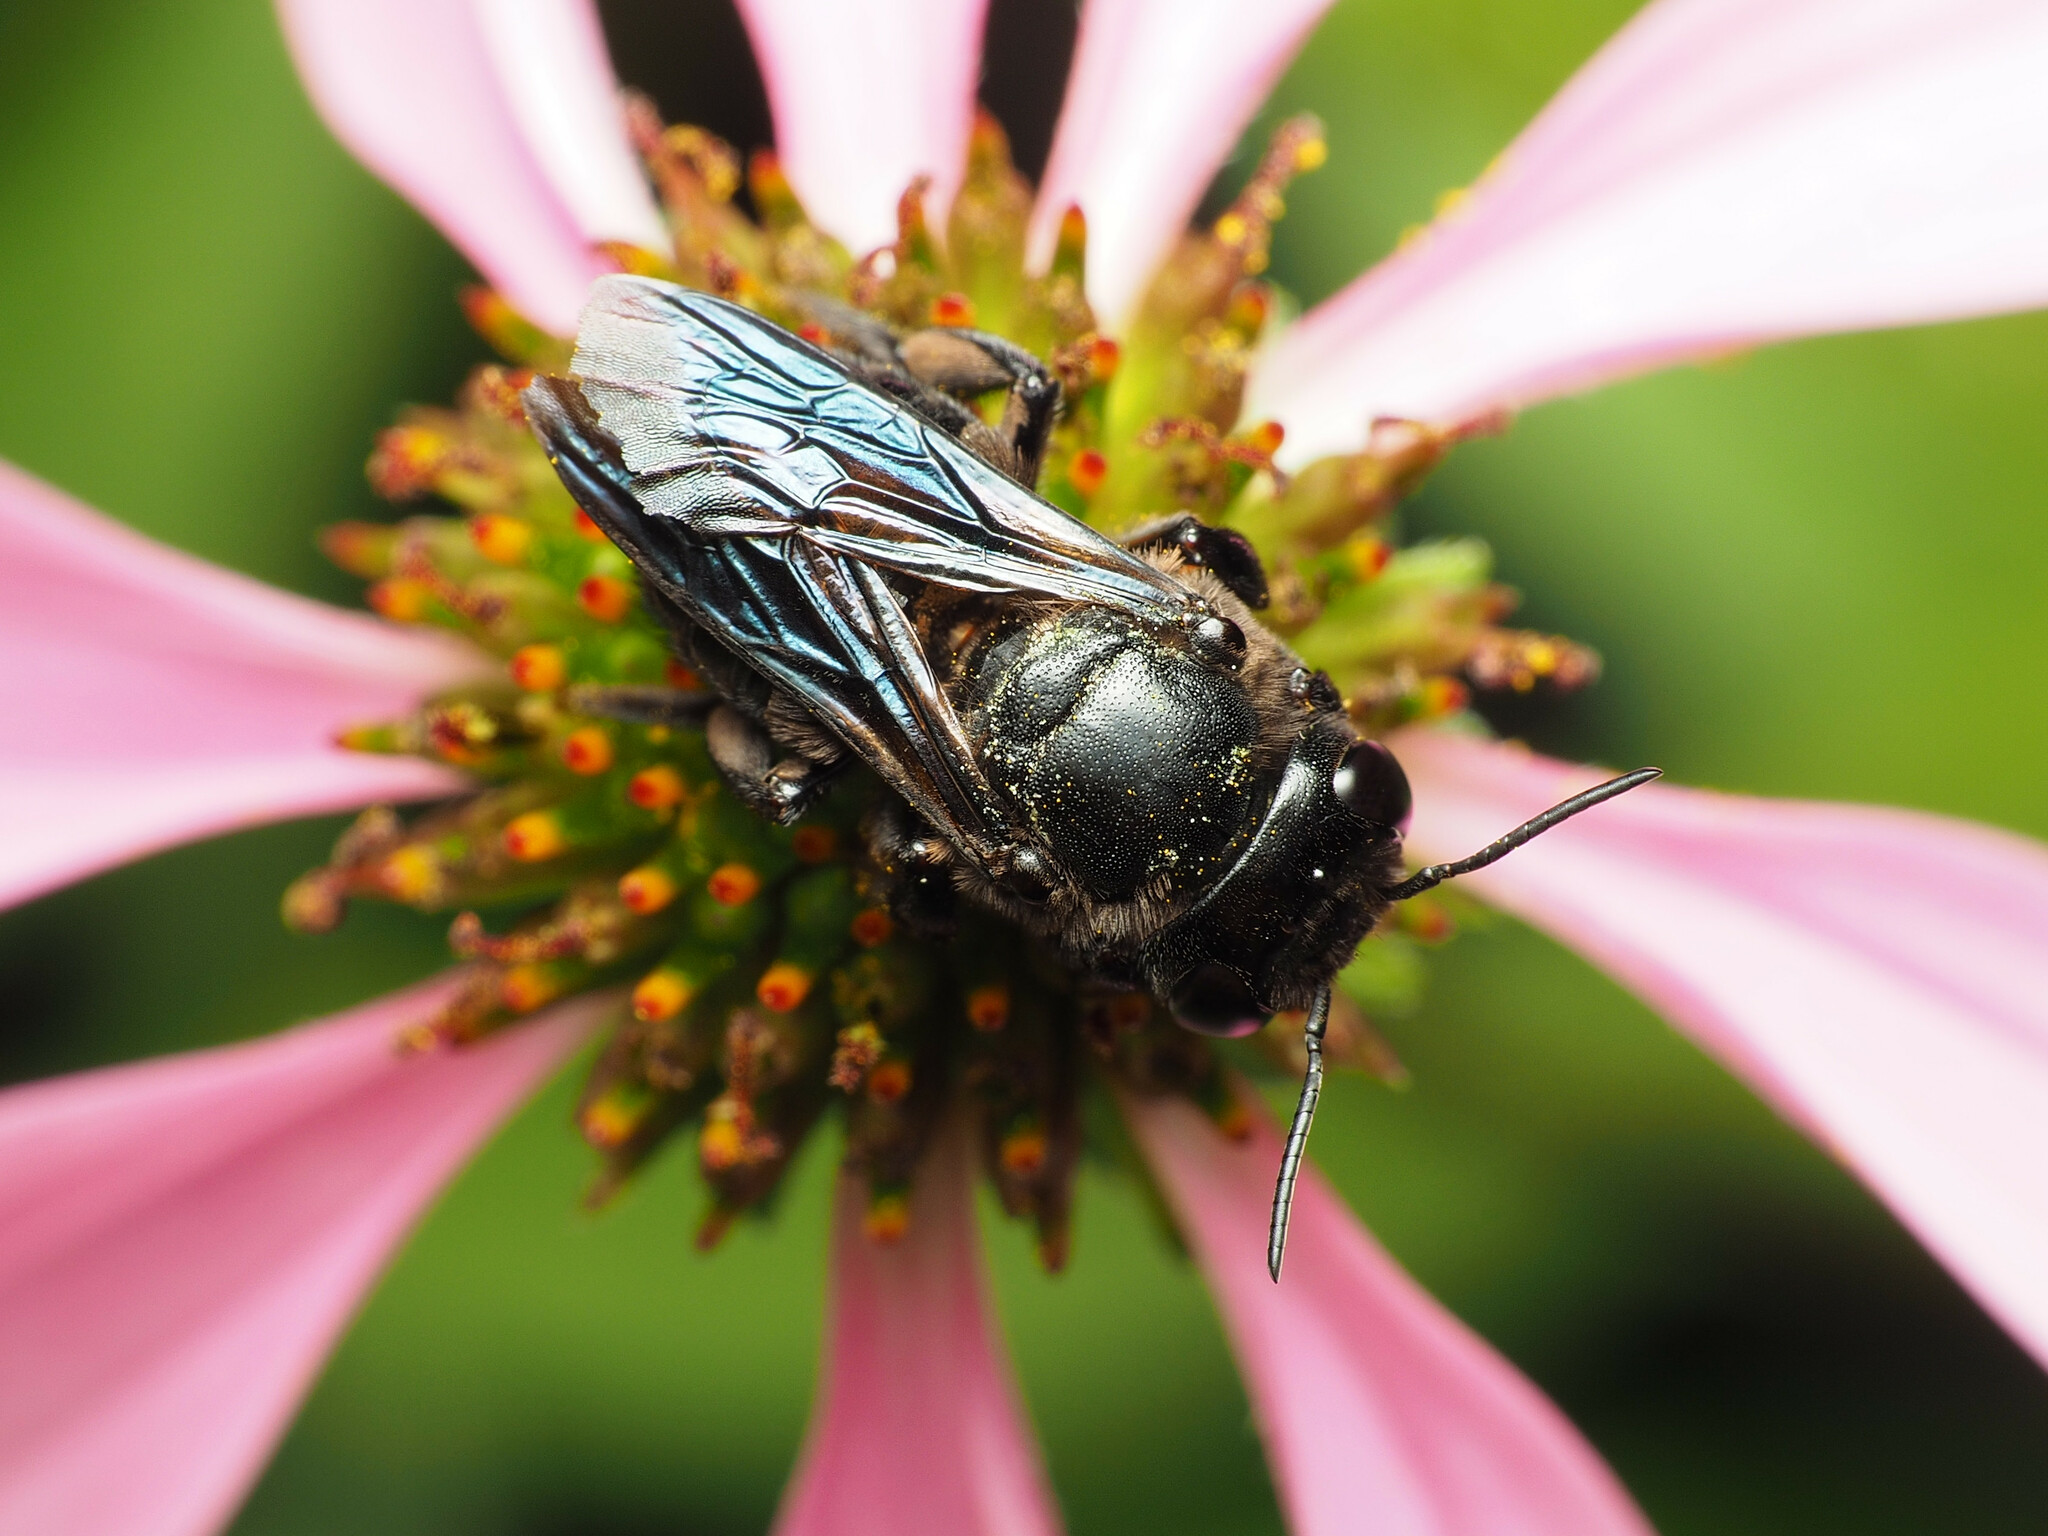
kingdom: Animalia
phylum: Arthropoda
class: Insecta
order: Hymenoptera
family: Megachilidae
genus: Megachile
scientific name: Megachile xylocopoides
